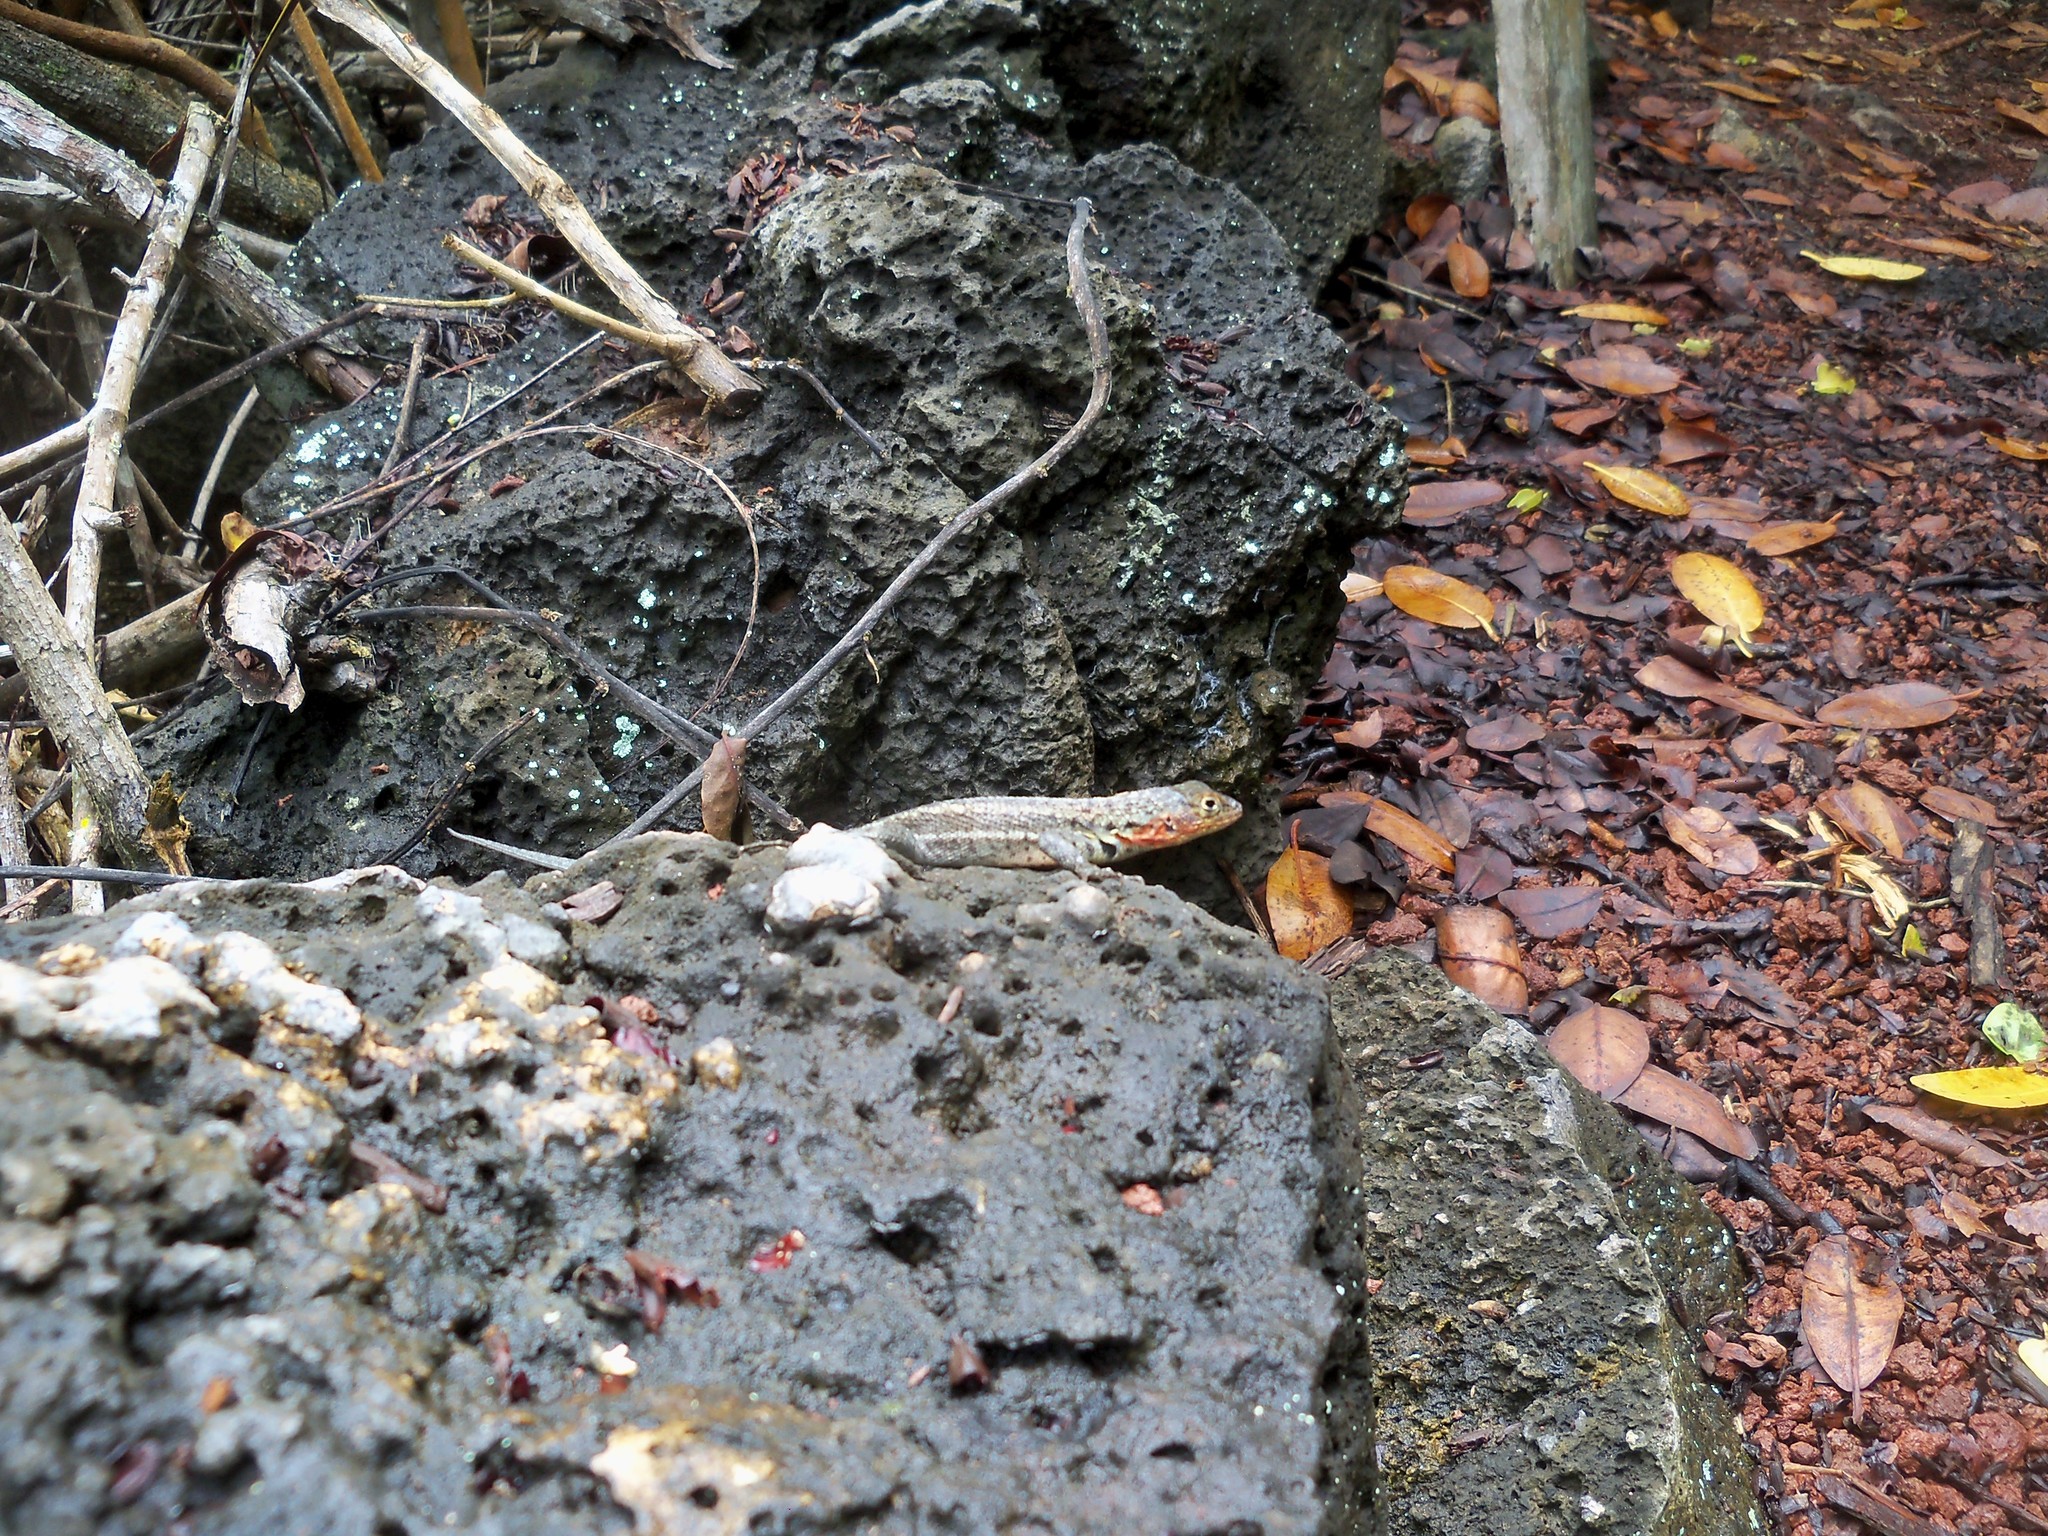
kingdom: Animalia
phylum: Chordata
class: Squamata
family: Tropiduridae
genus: Microlophus
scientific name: Microlophus indefatigabilis
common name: Galapagos lava lizard
